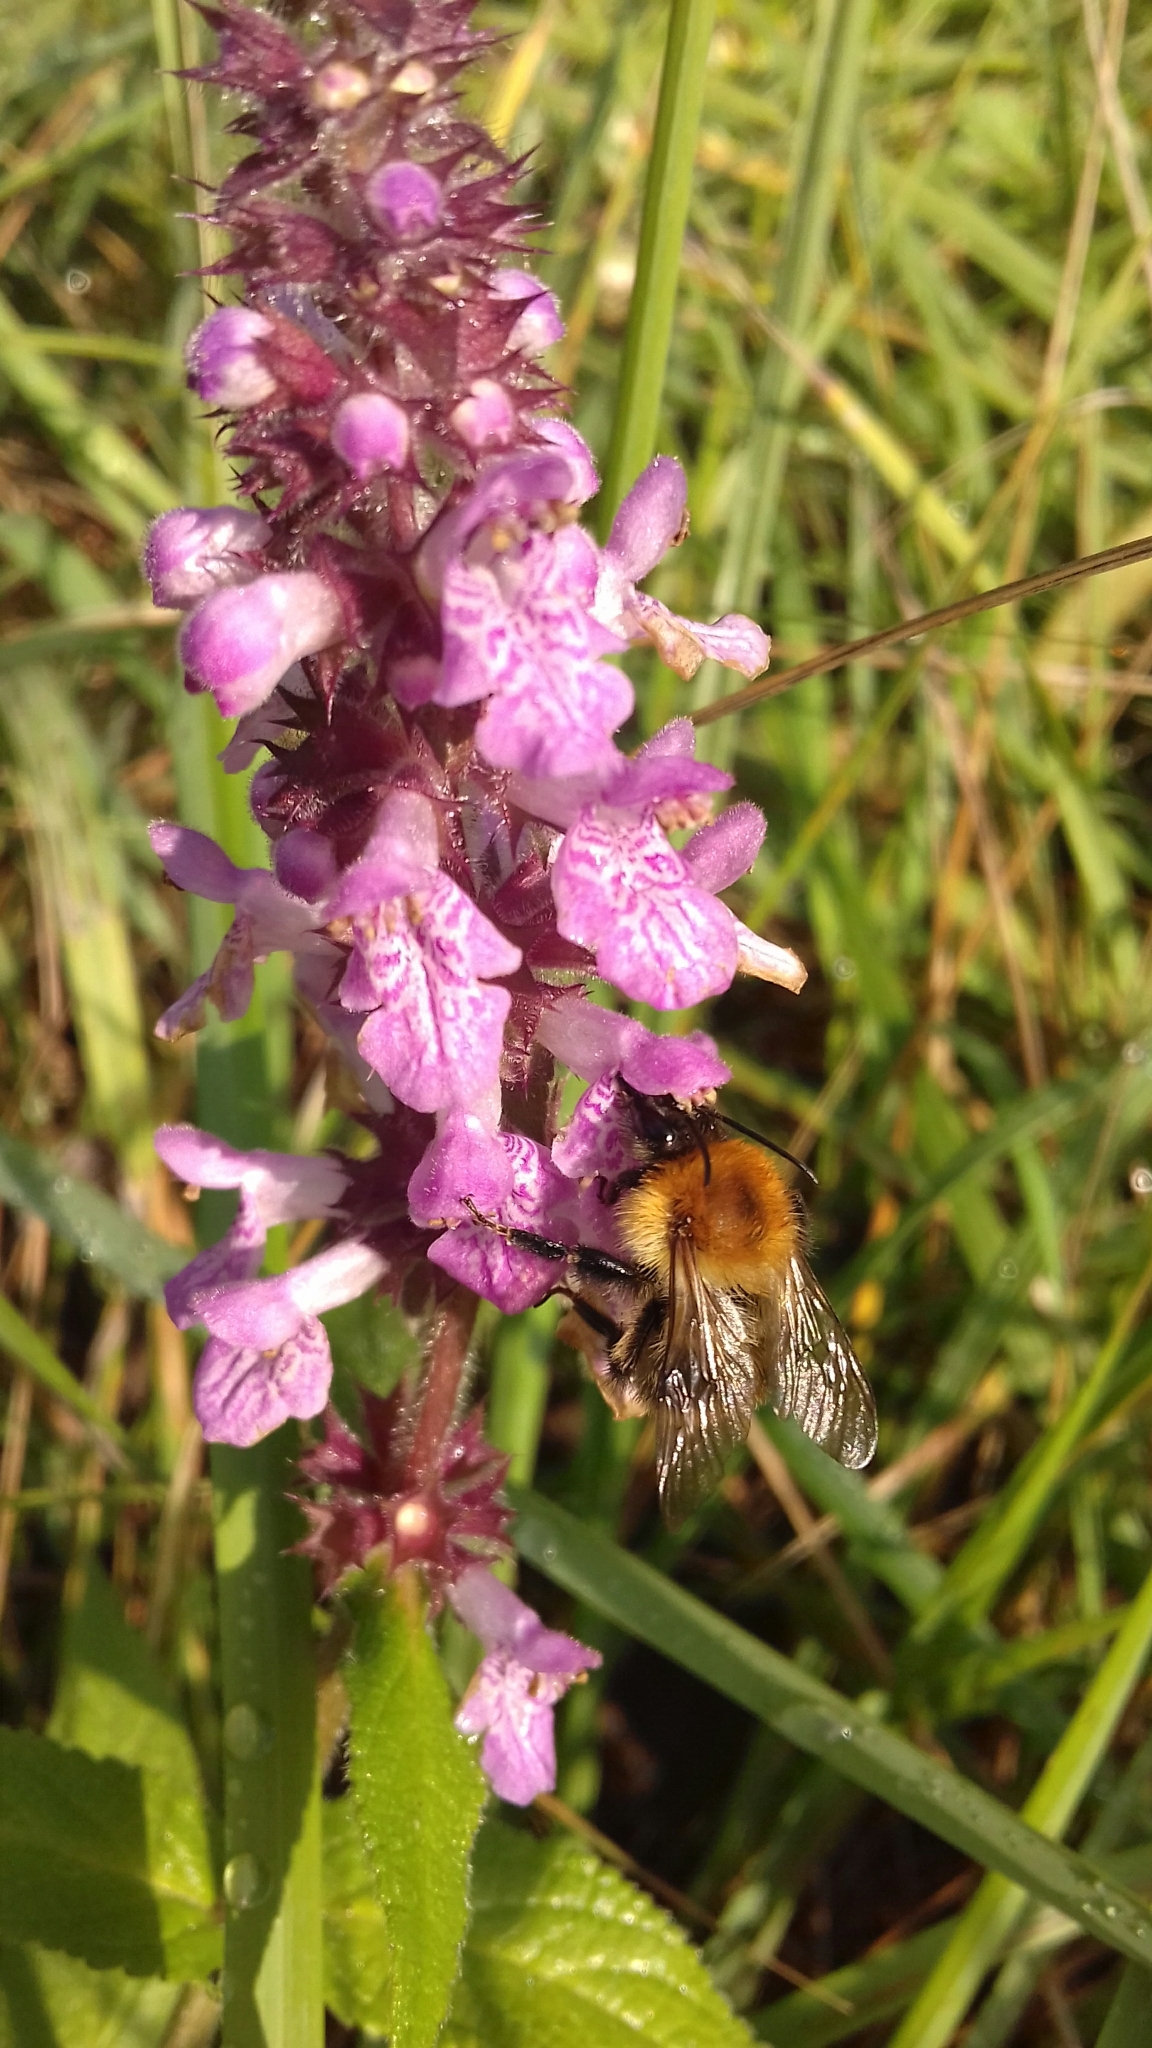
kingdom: Animalia
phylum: Arthropoda
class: Insecta
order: Hymenoptera
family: Apidae
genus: Bombus
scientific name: Bombus pascuorum
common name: Common carder bee
